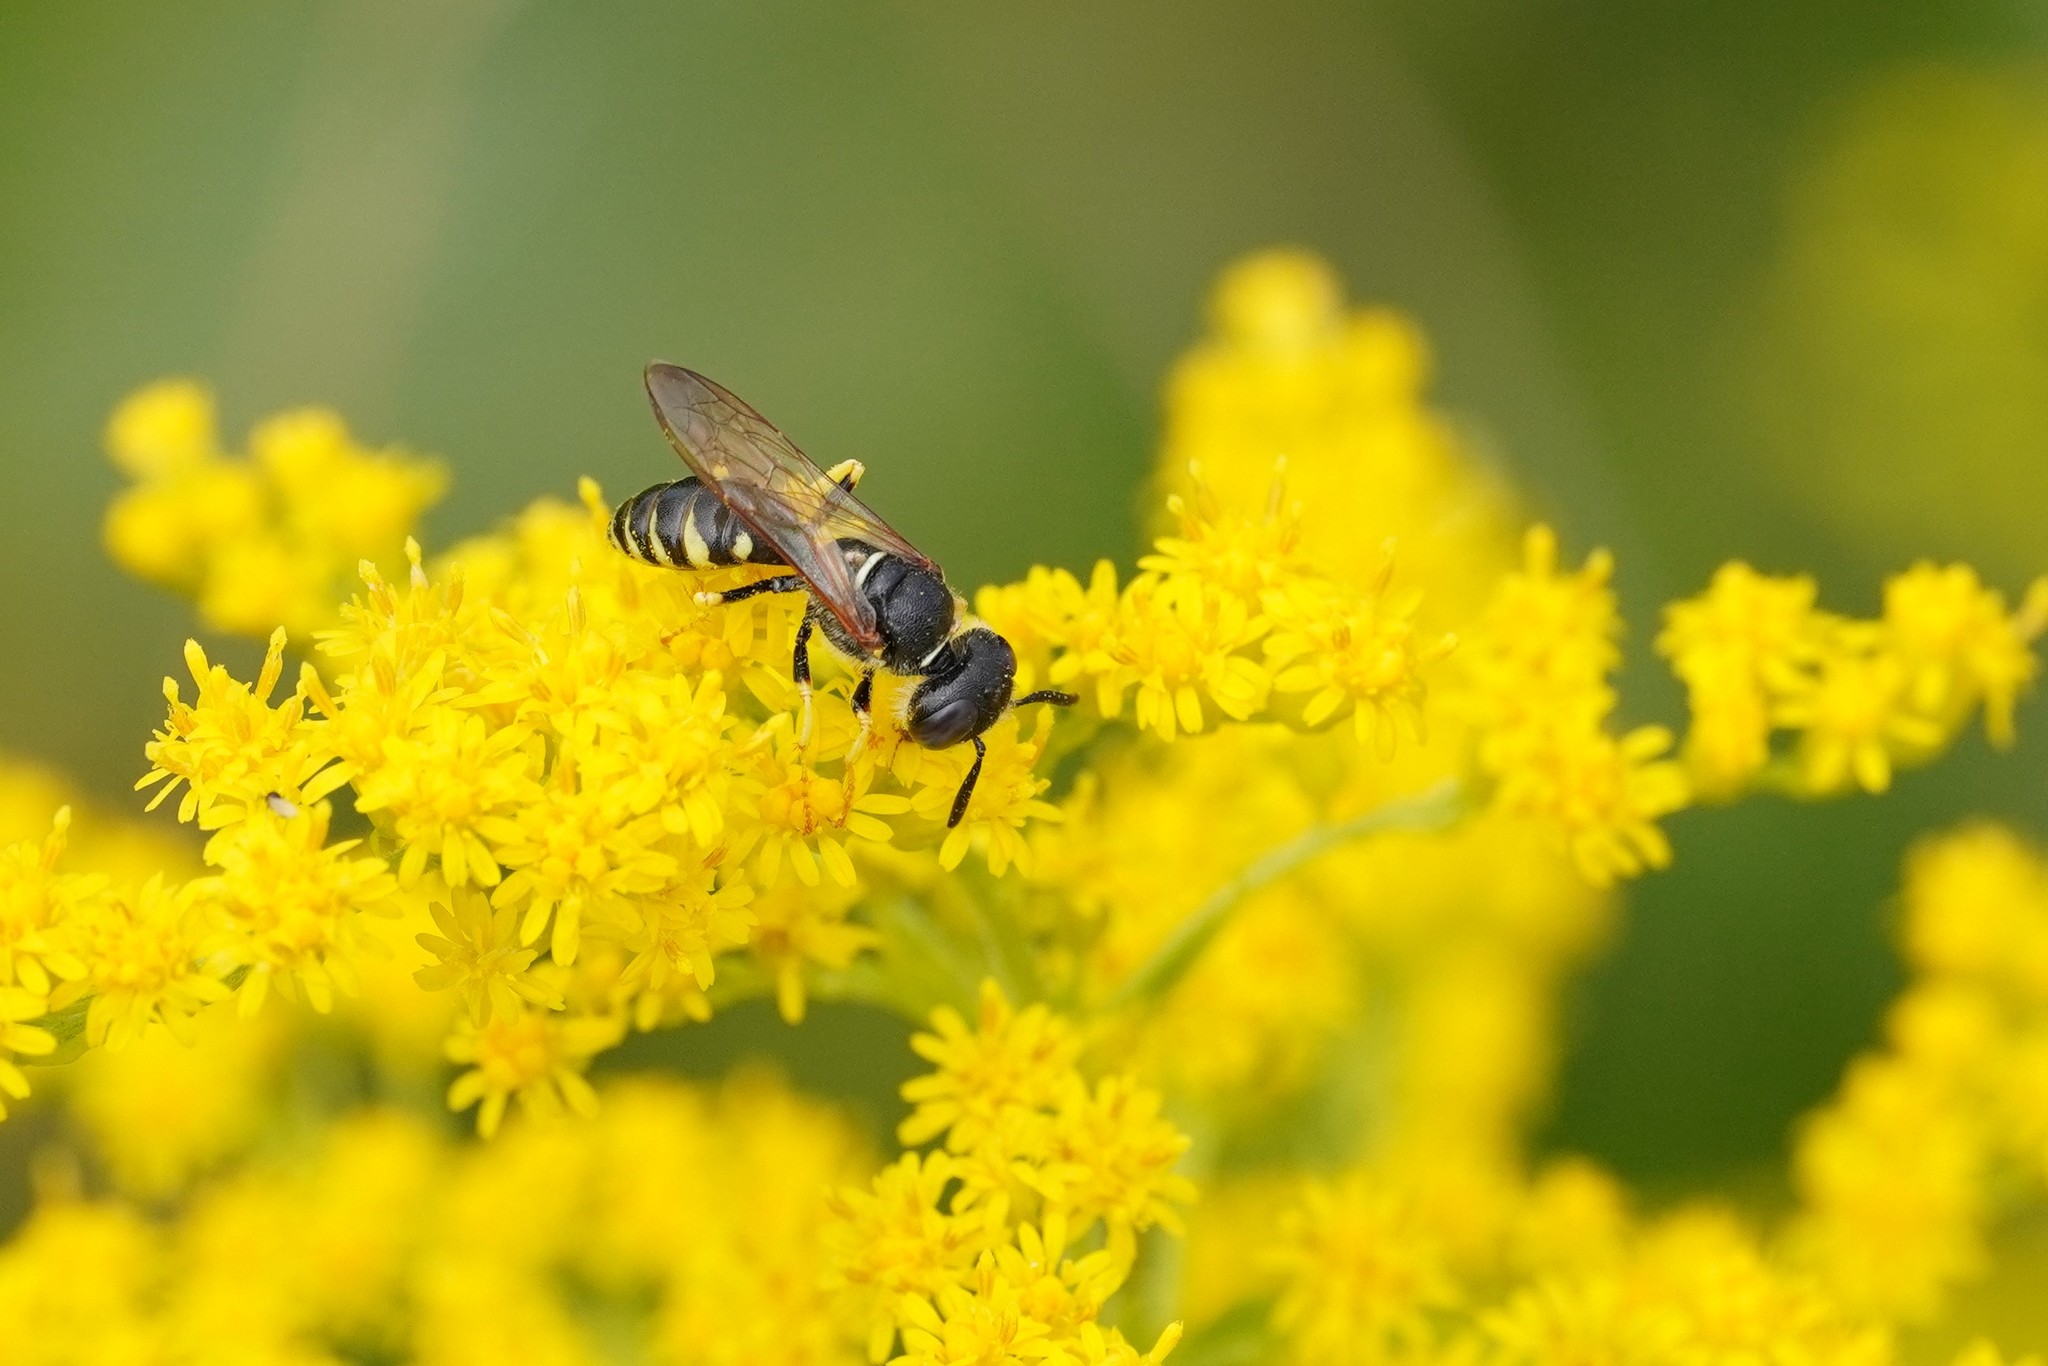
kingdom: Animalia
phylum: Arthropoda
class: Insecta
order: Hymenoptera
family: Crabronidae
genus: Philanthus
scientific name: Philanthus triangulum
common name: Bee wolf
